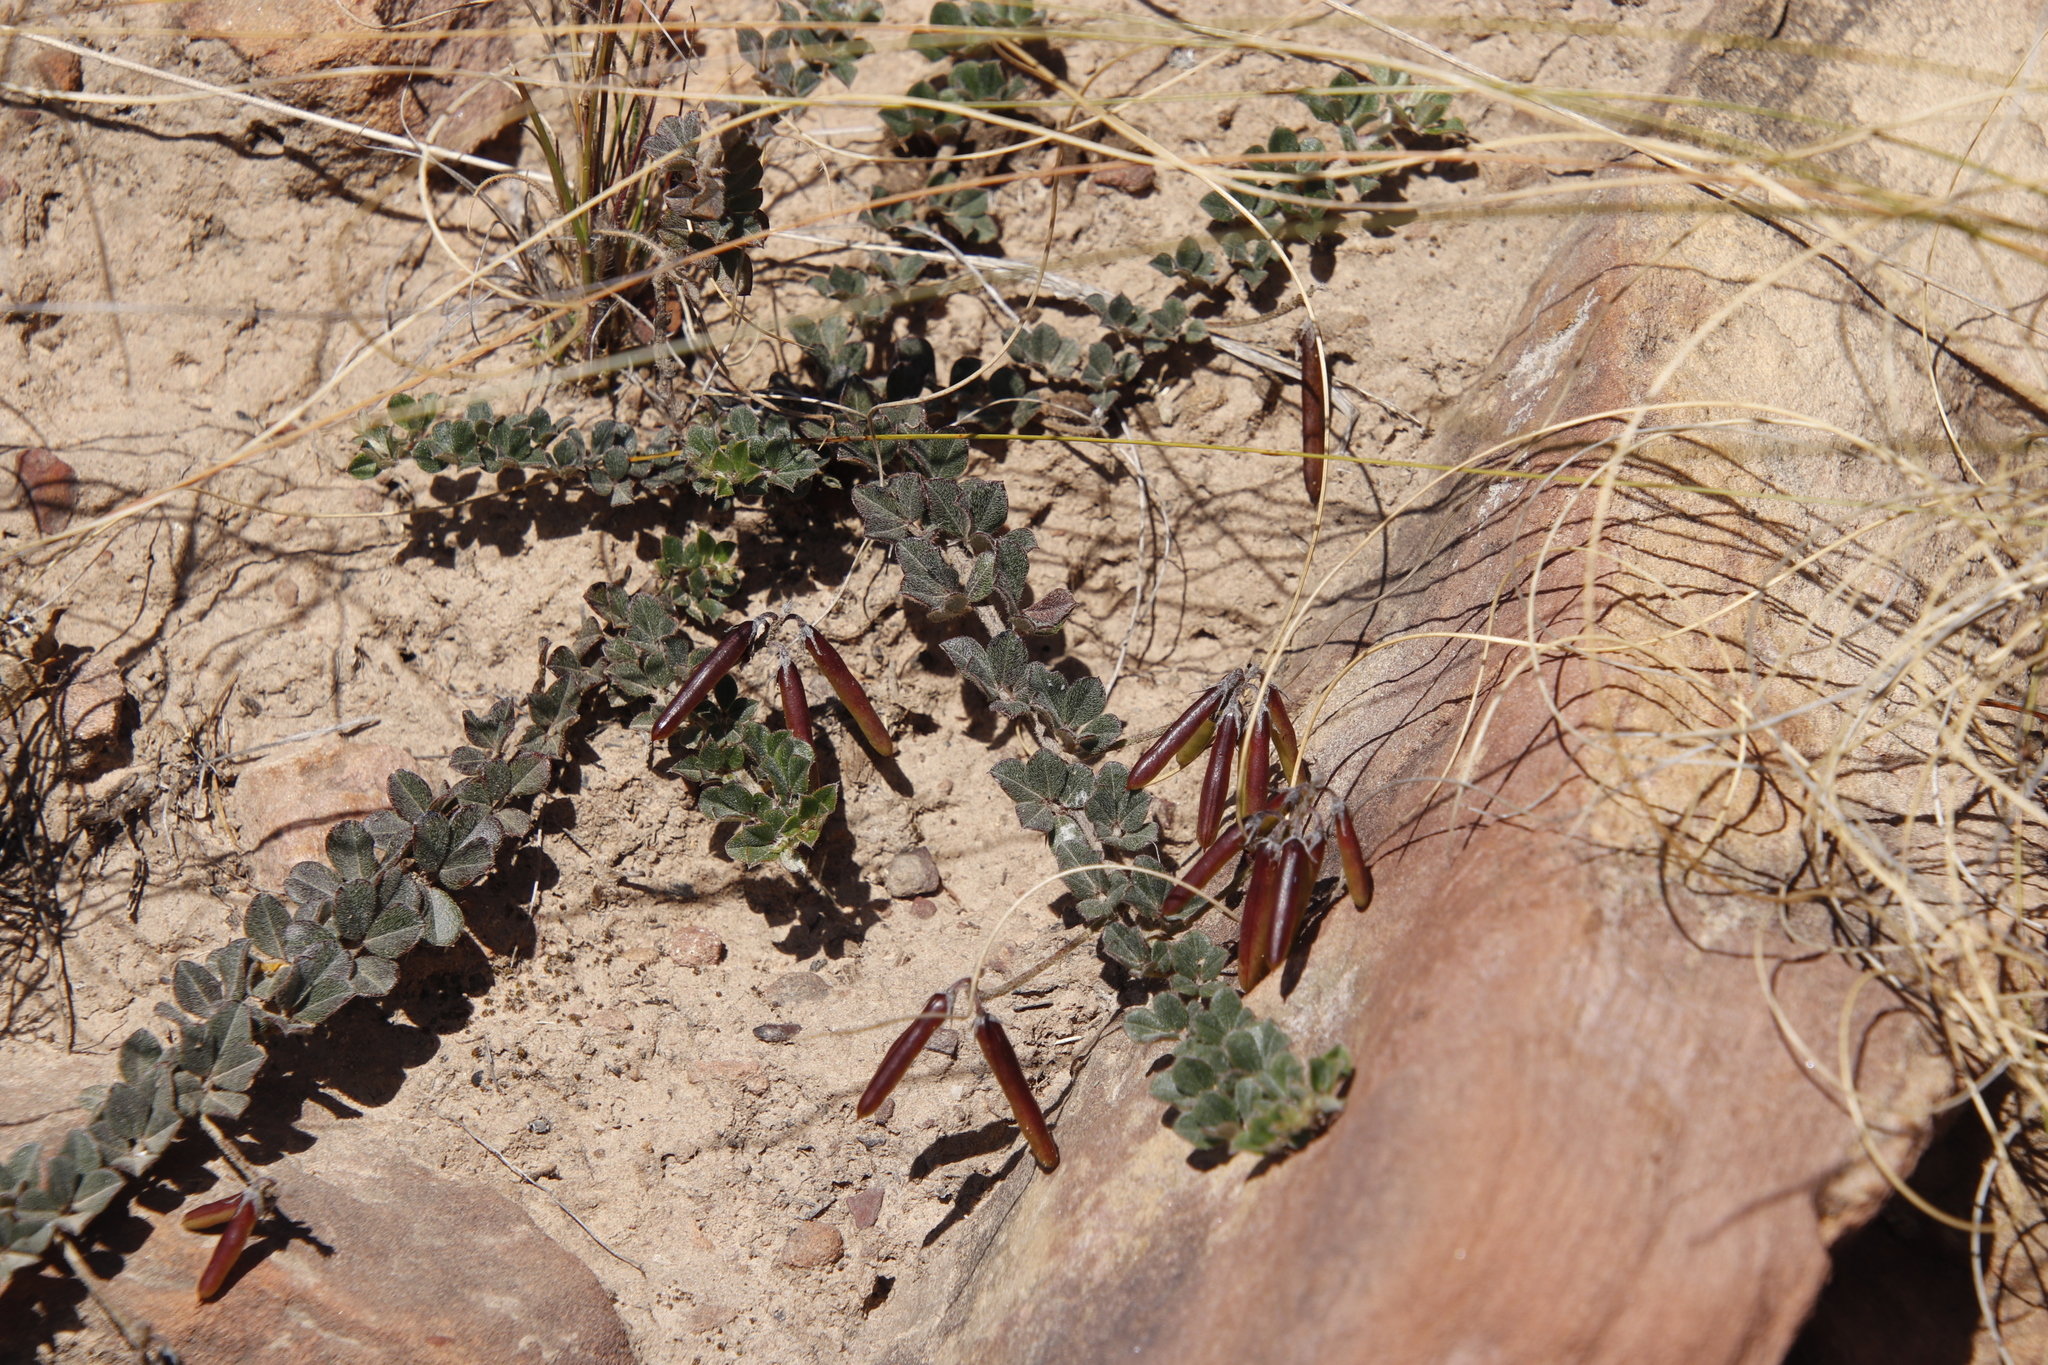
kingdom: Plantae
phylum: Tracheophyta
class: Magnoliopsida
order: Fabales
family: Fabaceae
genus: Indigofera
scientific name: Indigofera mauritanica
